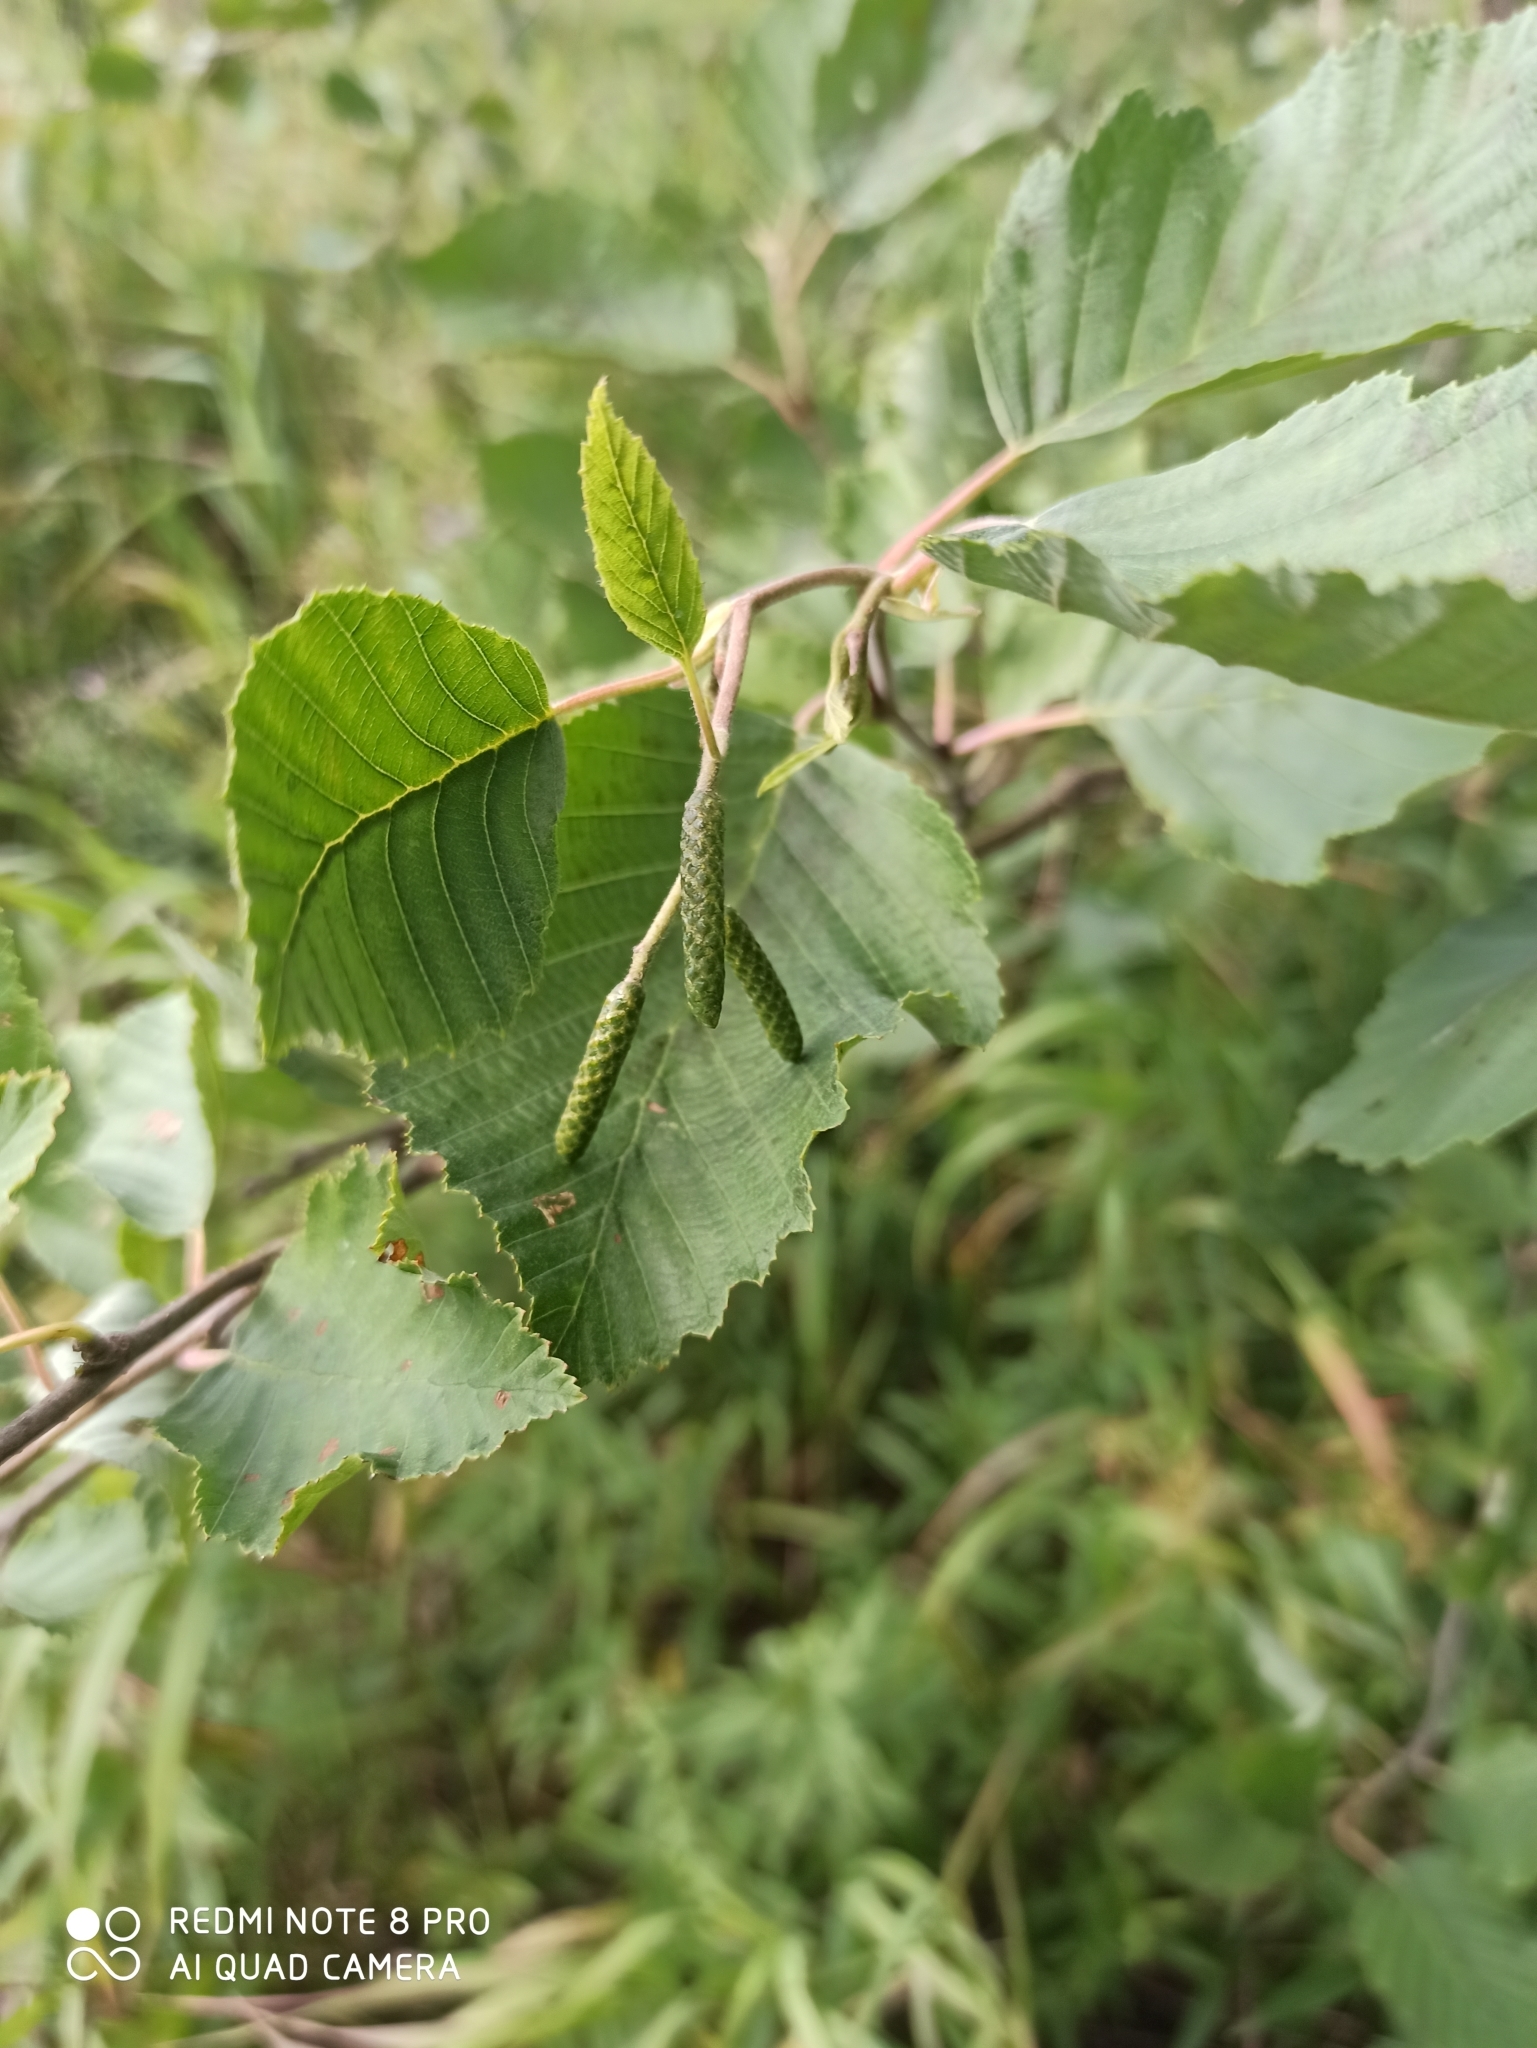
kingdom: Plantae
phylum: Tracheophyta
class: Magnoliopsida
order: Fagales
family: Betulaceae
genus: Alnus
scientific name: Alnus incana
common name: Grey alder
